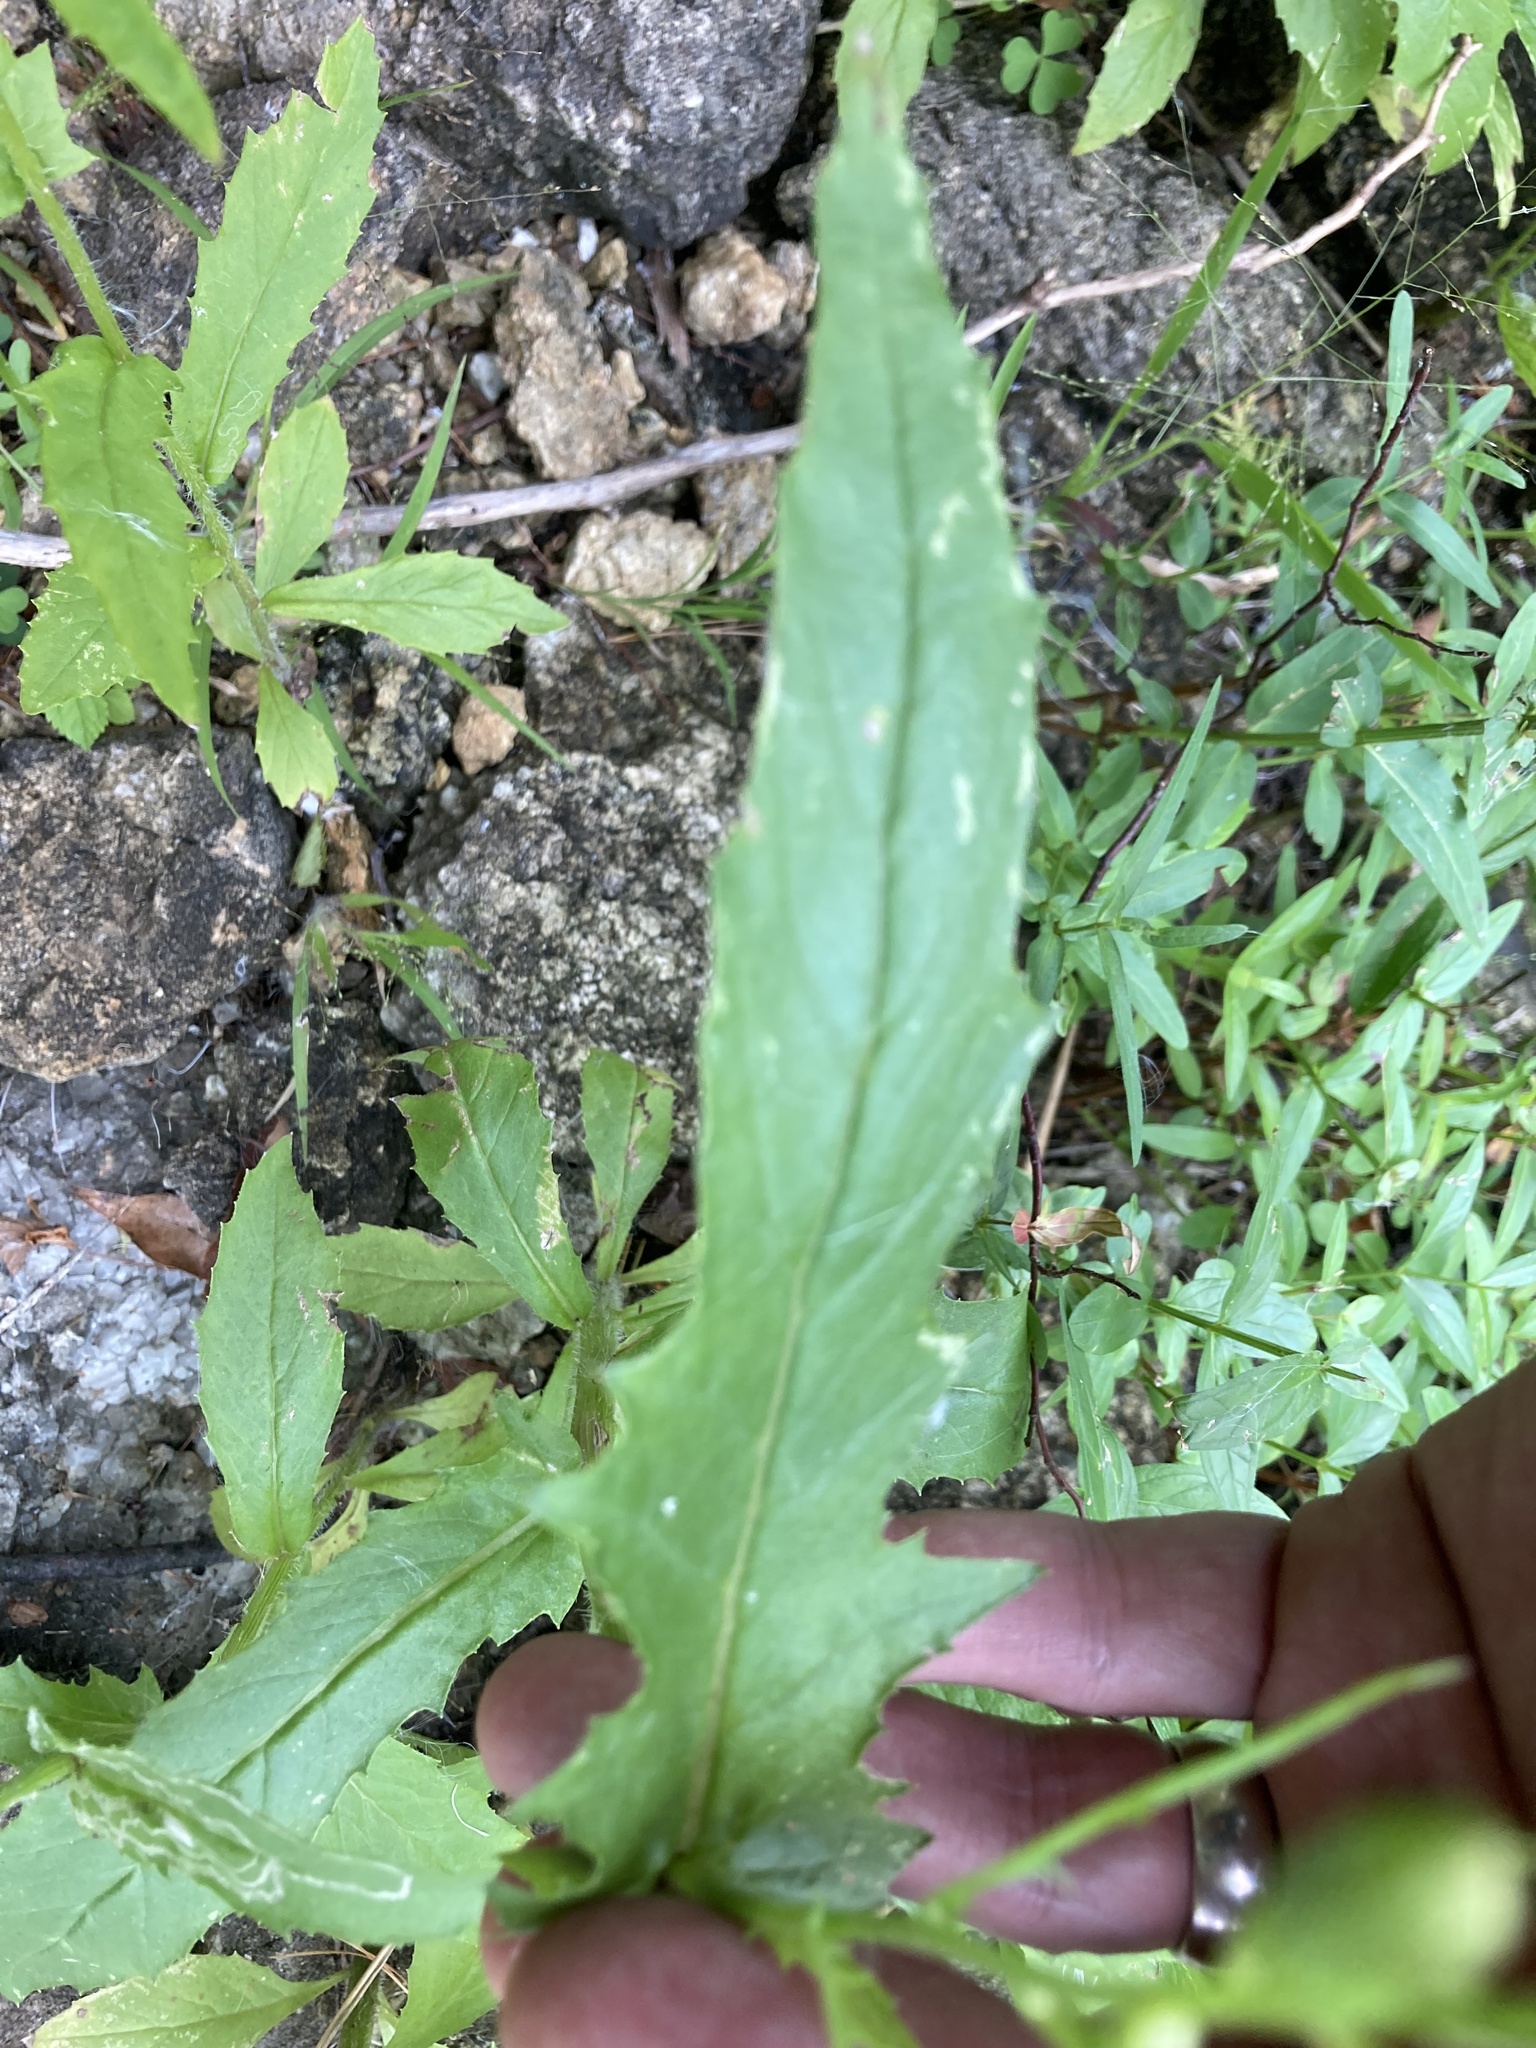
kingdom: Plantae
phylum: Tracheophyta
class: Magnoliopsida
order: Asterales
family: Asteraceae
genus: Erechtites
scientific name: Erechtites hieraciifolius
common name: American burnweed
